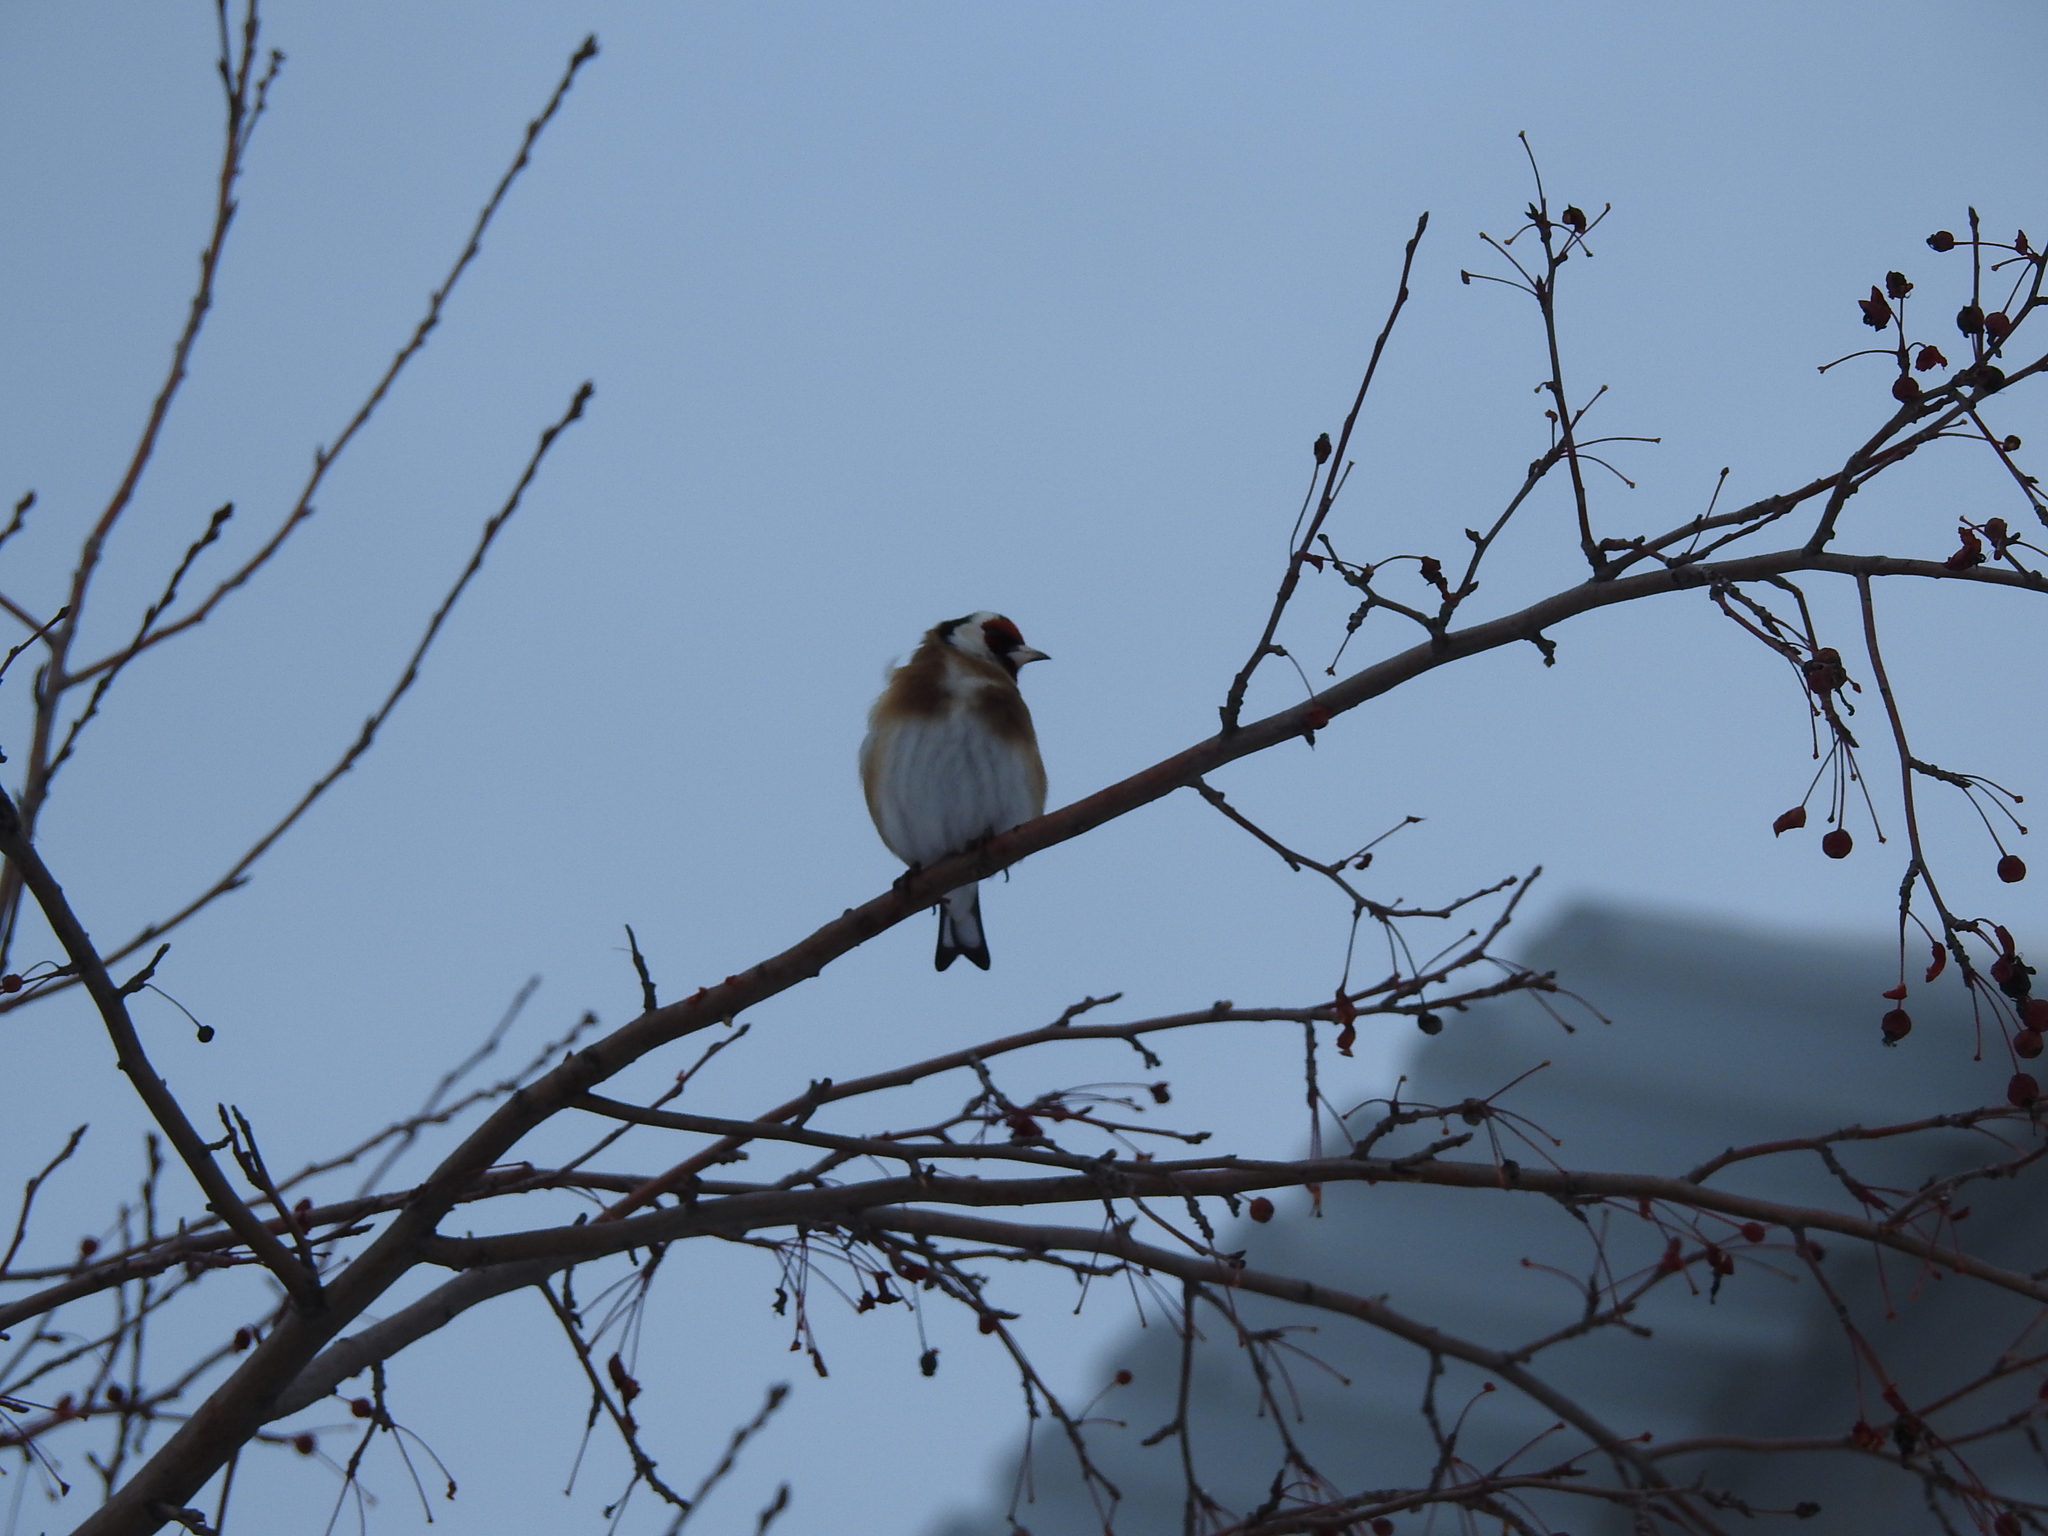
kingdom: Animalia
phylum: Chordata
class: Aves
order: Passeriformes
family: Fringillidae
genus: Carduelis
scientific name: Carduelis carduelis
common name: European goldfinch
